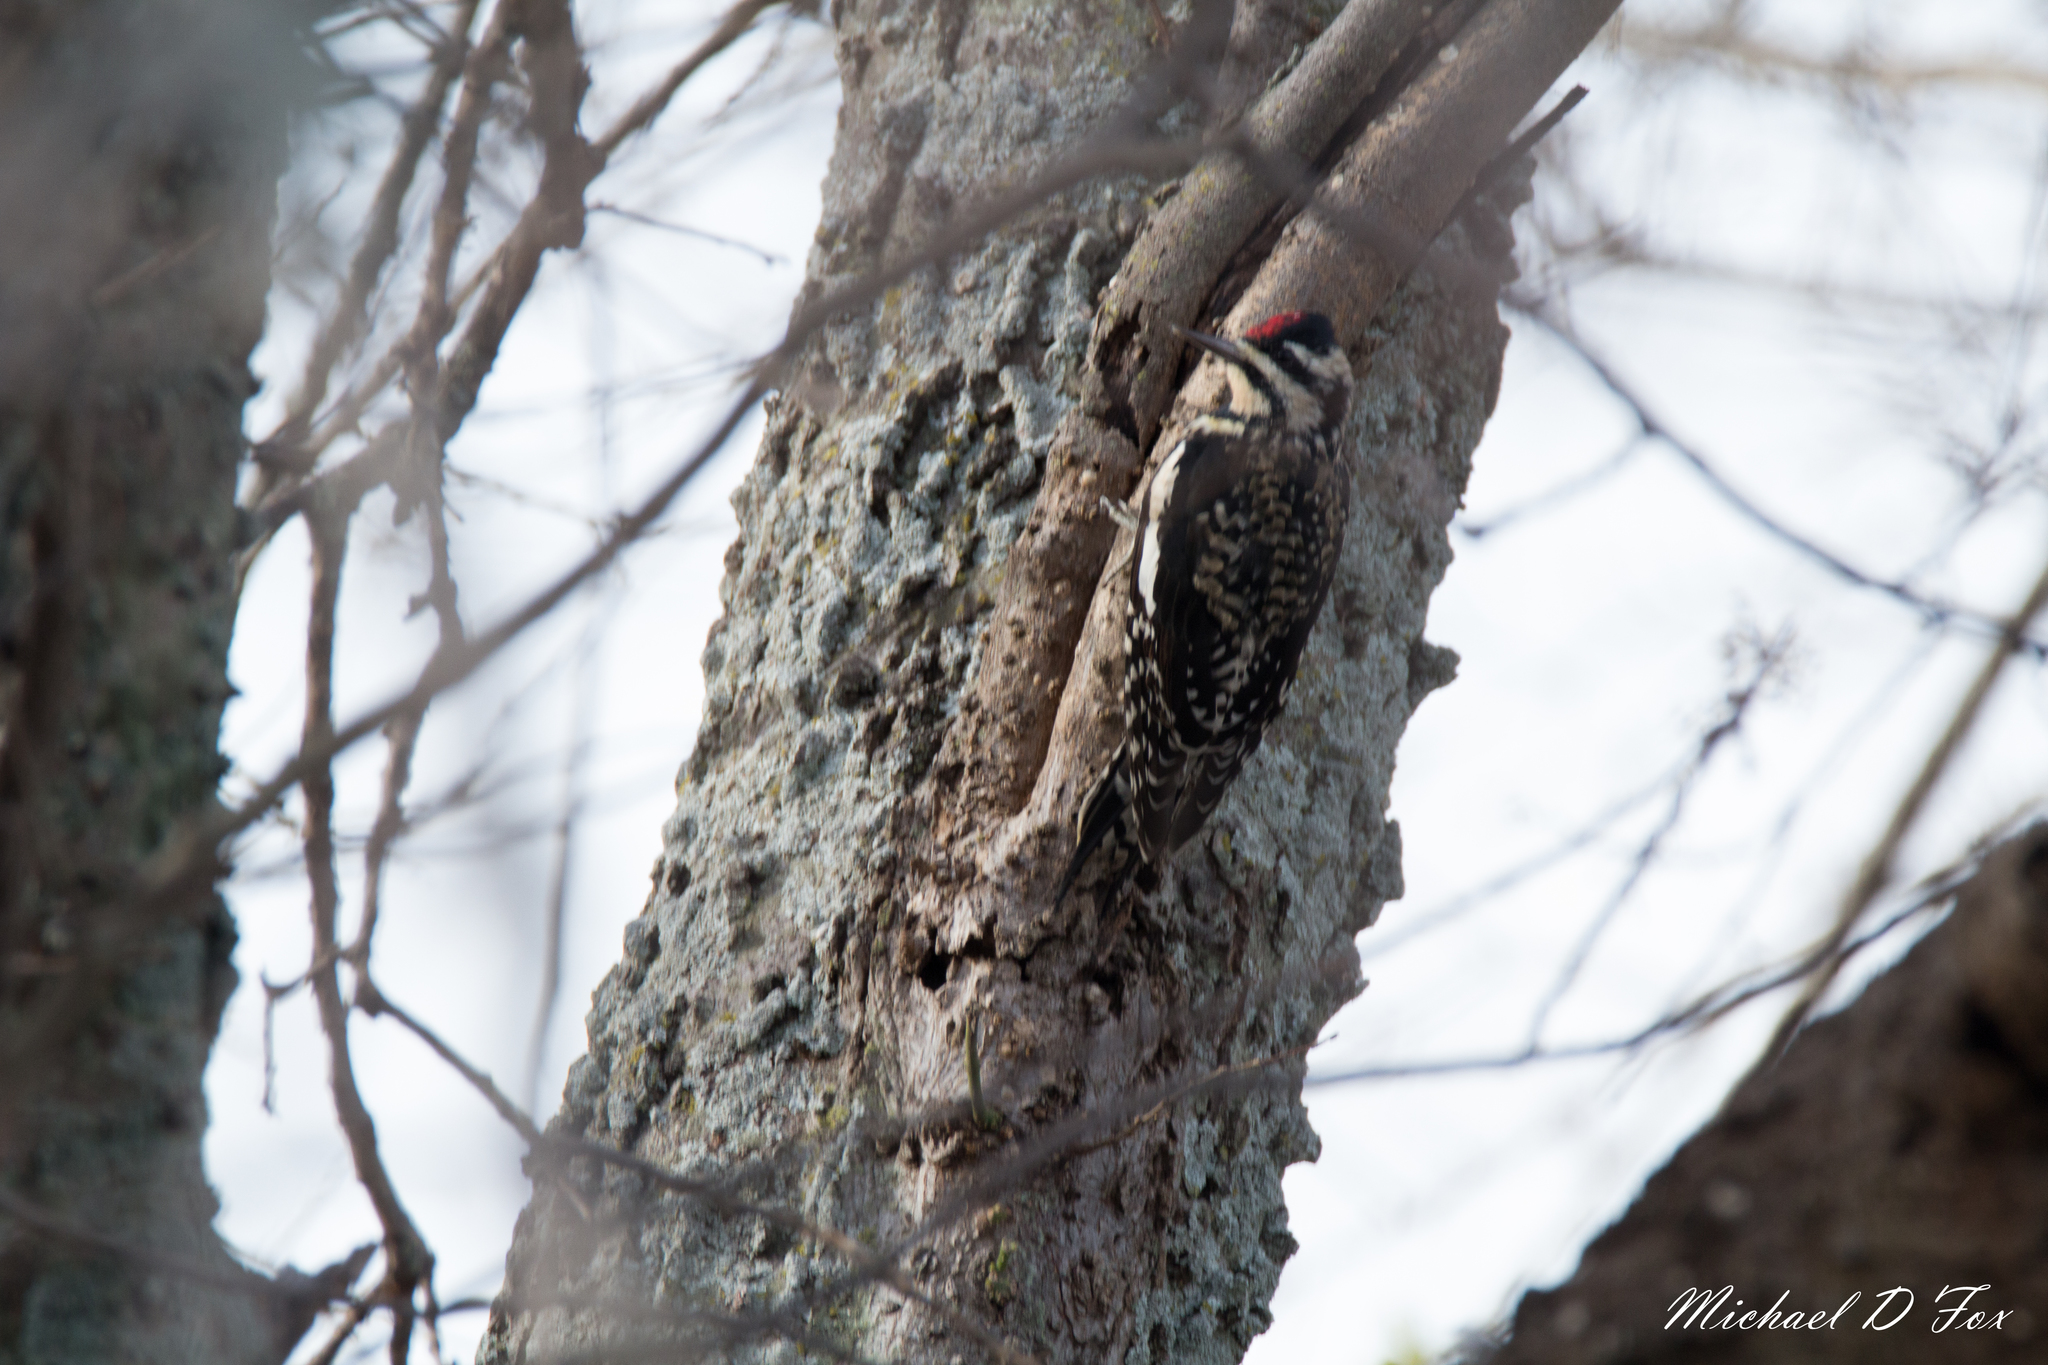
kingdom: Animalia
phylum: Chordata
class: Aves
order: Piciformes
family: Picidae
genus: Sphyrapicus
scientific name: Sphyrapicus varius
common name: Yellow-bellied sapsucker
